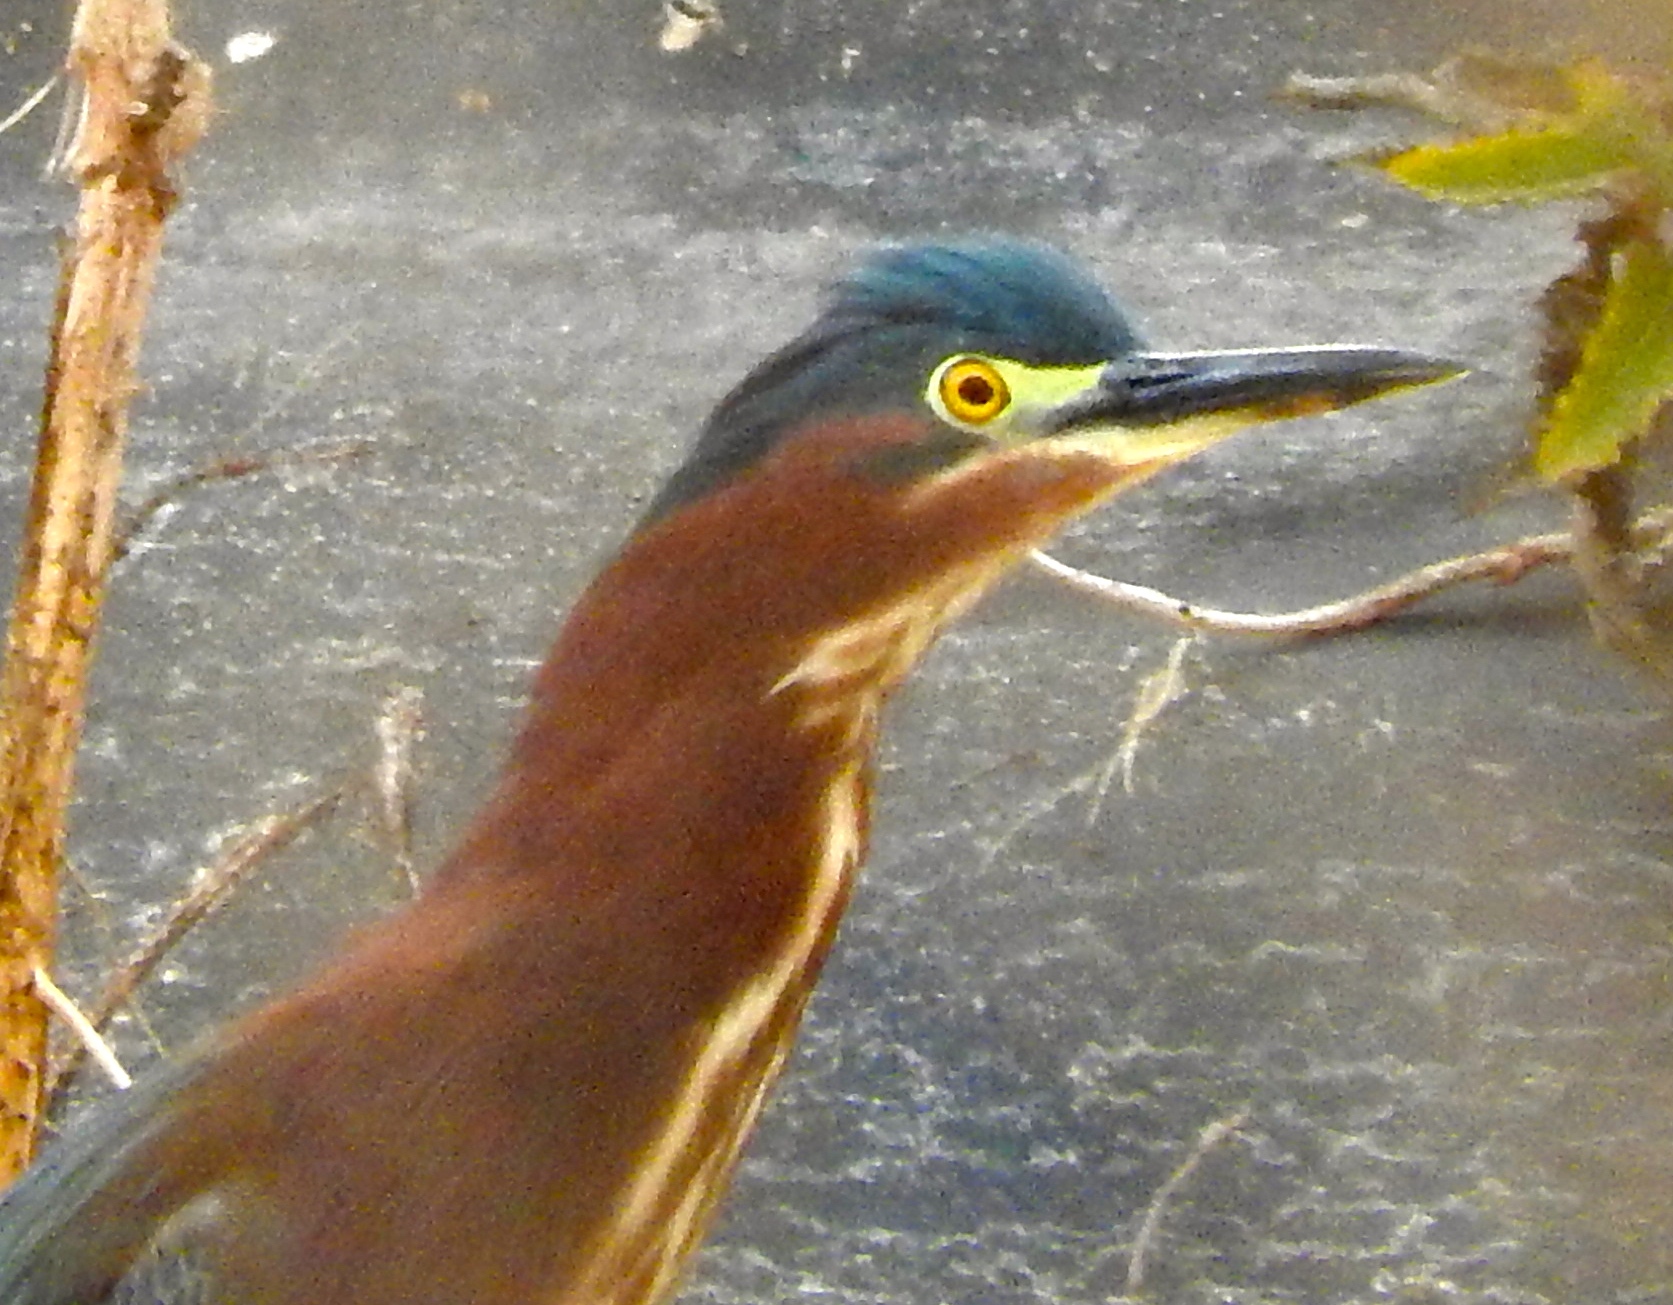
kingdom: Animalia
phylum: Chordata
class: Aves
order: Pelecaniformes
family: Ardeidae
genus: Butorides
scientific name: Butorides virescens
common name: Green heron
